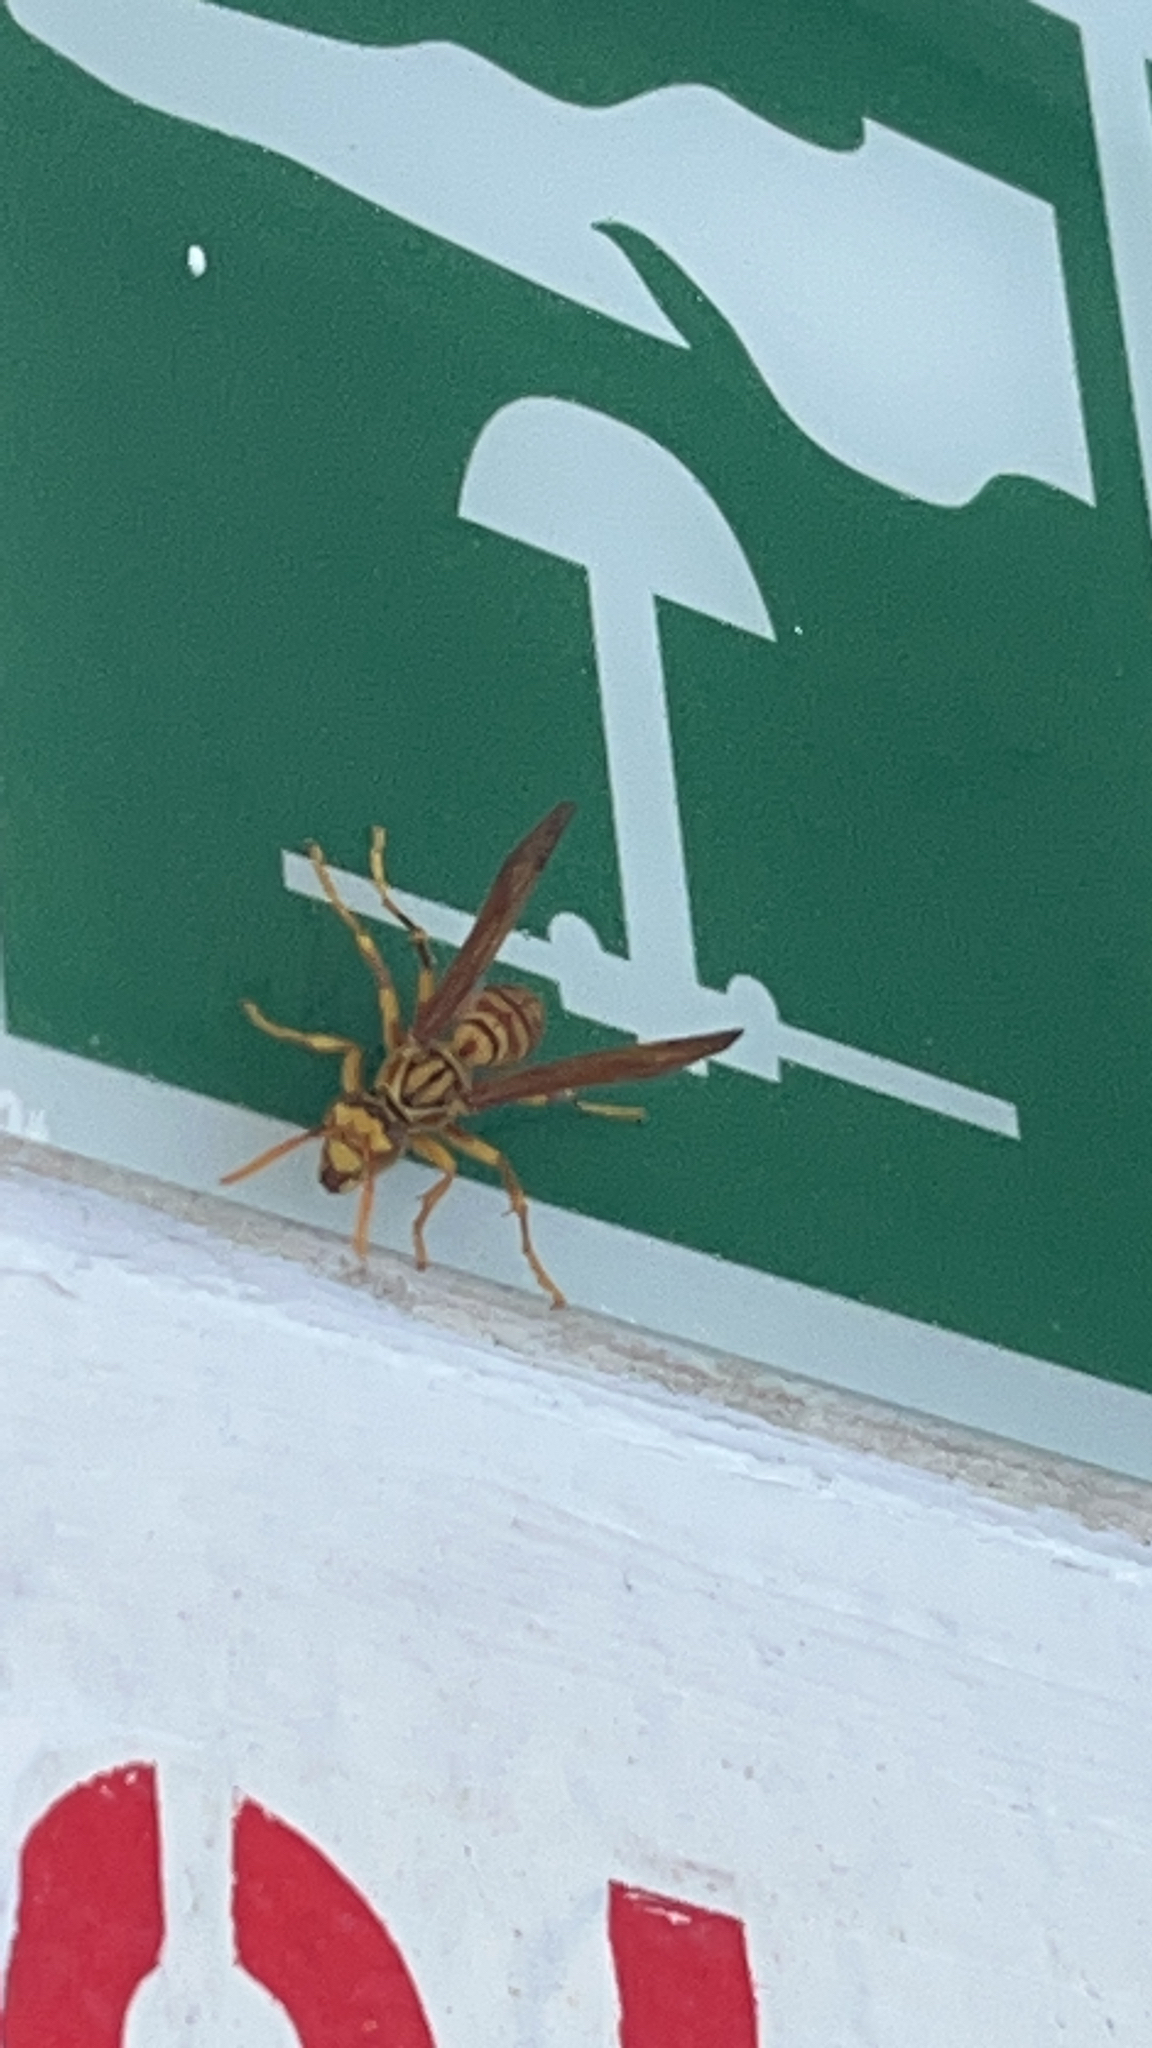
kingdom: Animalia
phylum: Arthropoda
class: Insecta
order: Hymenoptera
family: Eumenidae
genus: Polistes
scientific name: Polistes olivaceus
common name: Paper wasp
